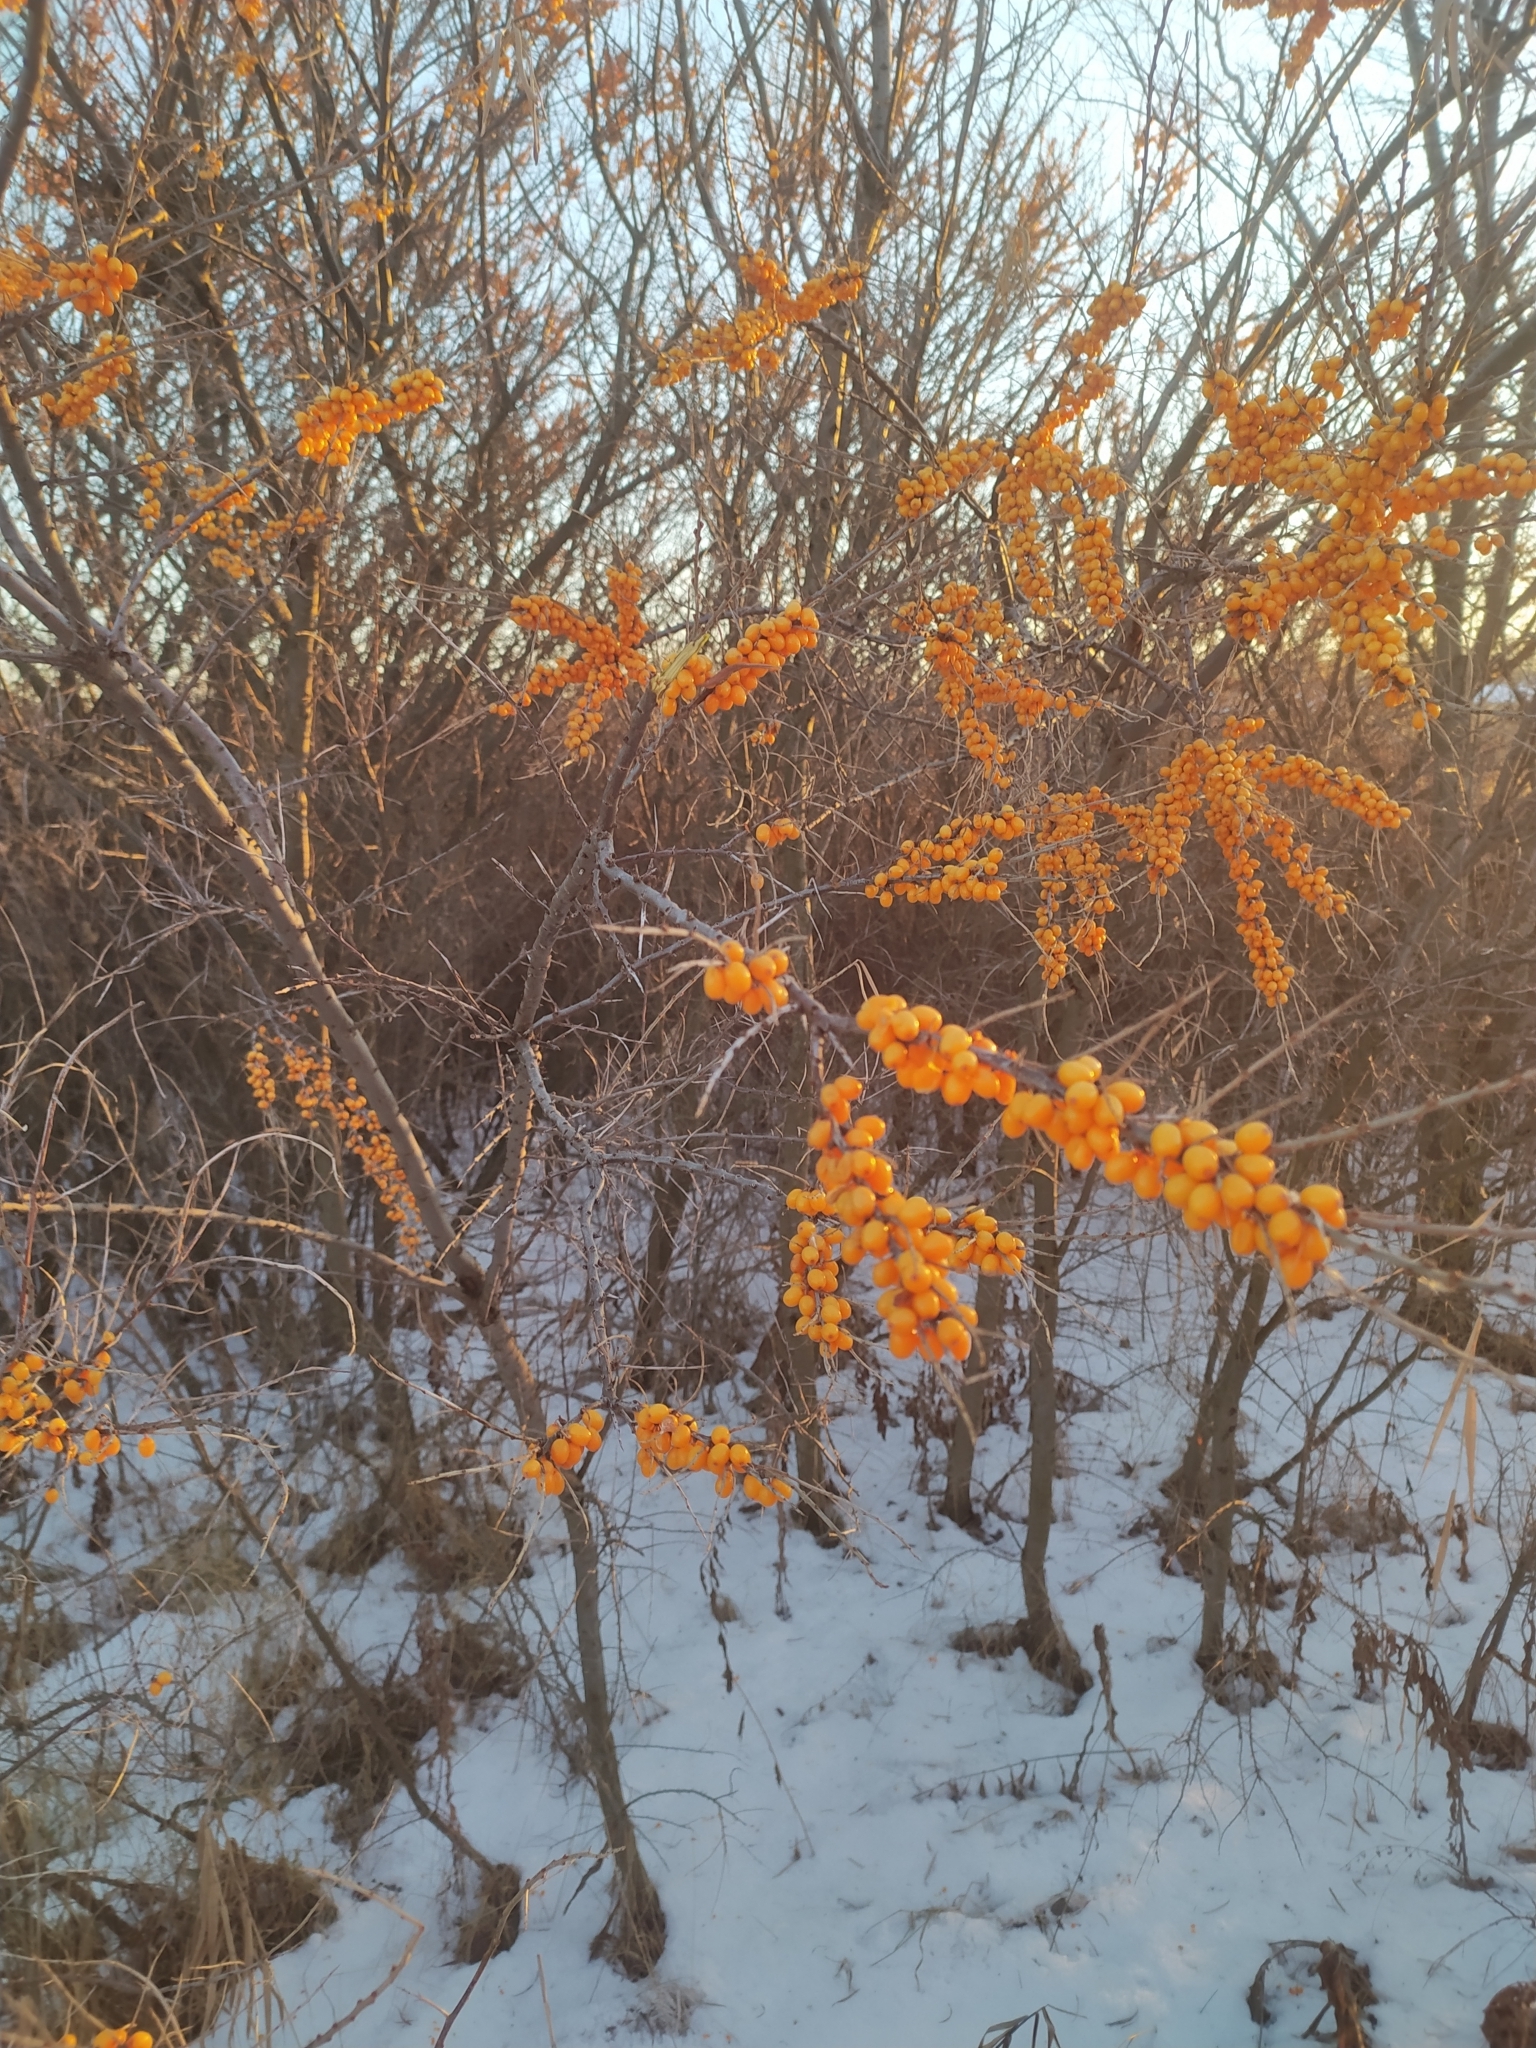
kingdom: Plantae
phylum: Tracheophyta
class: Magnoliopsida
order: Rosales
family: Elaeagnaceae
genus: Hippophae
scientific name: Hippophae rhamnoides
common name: Sea-buckthorn
